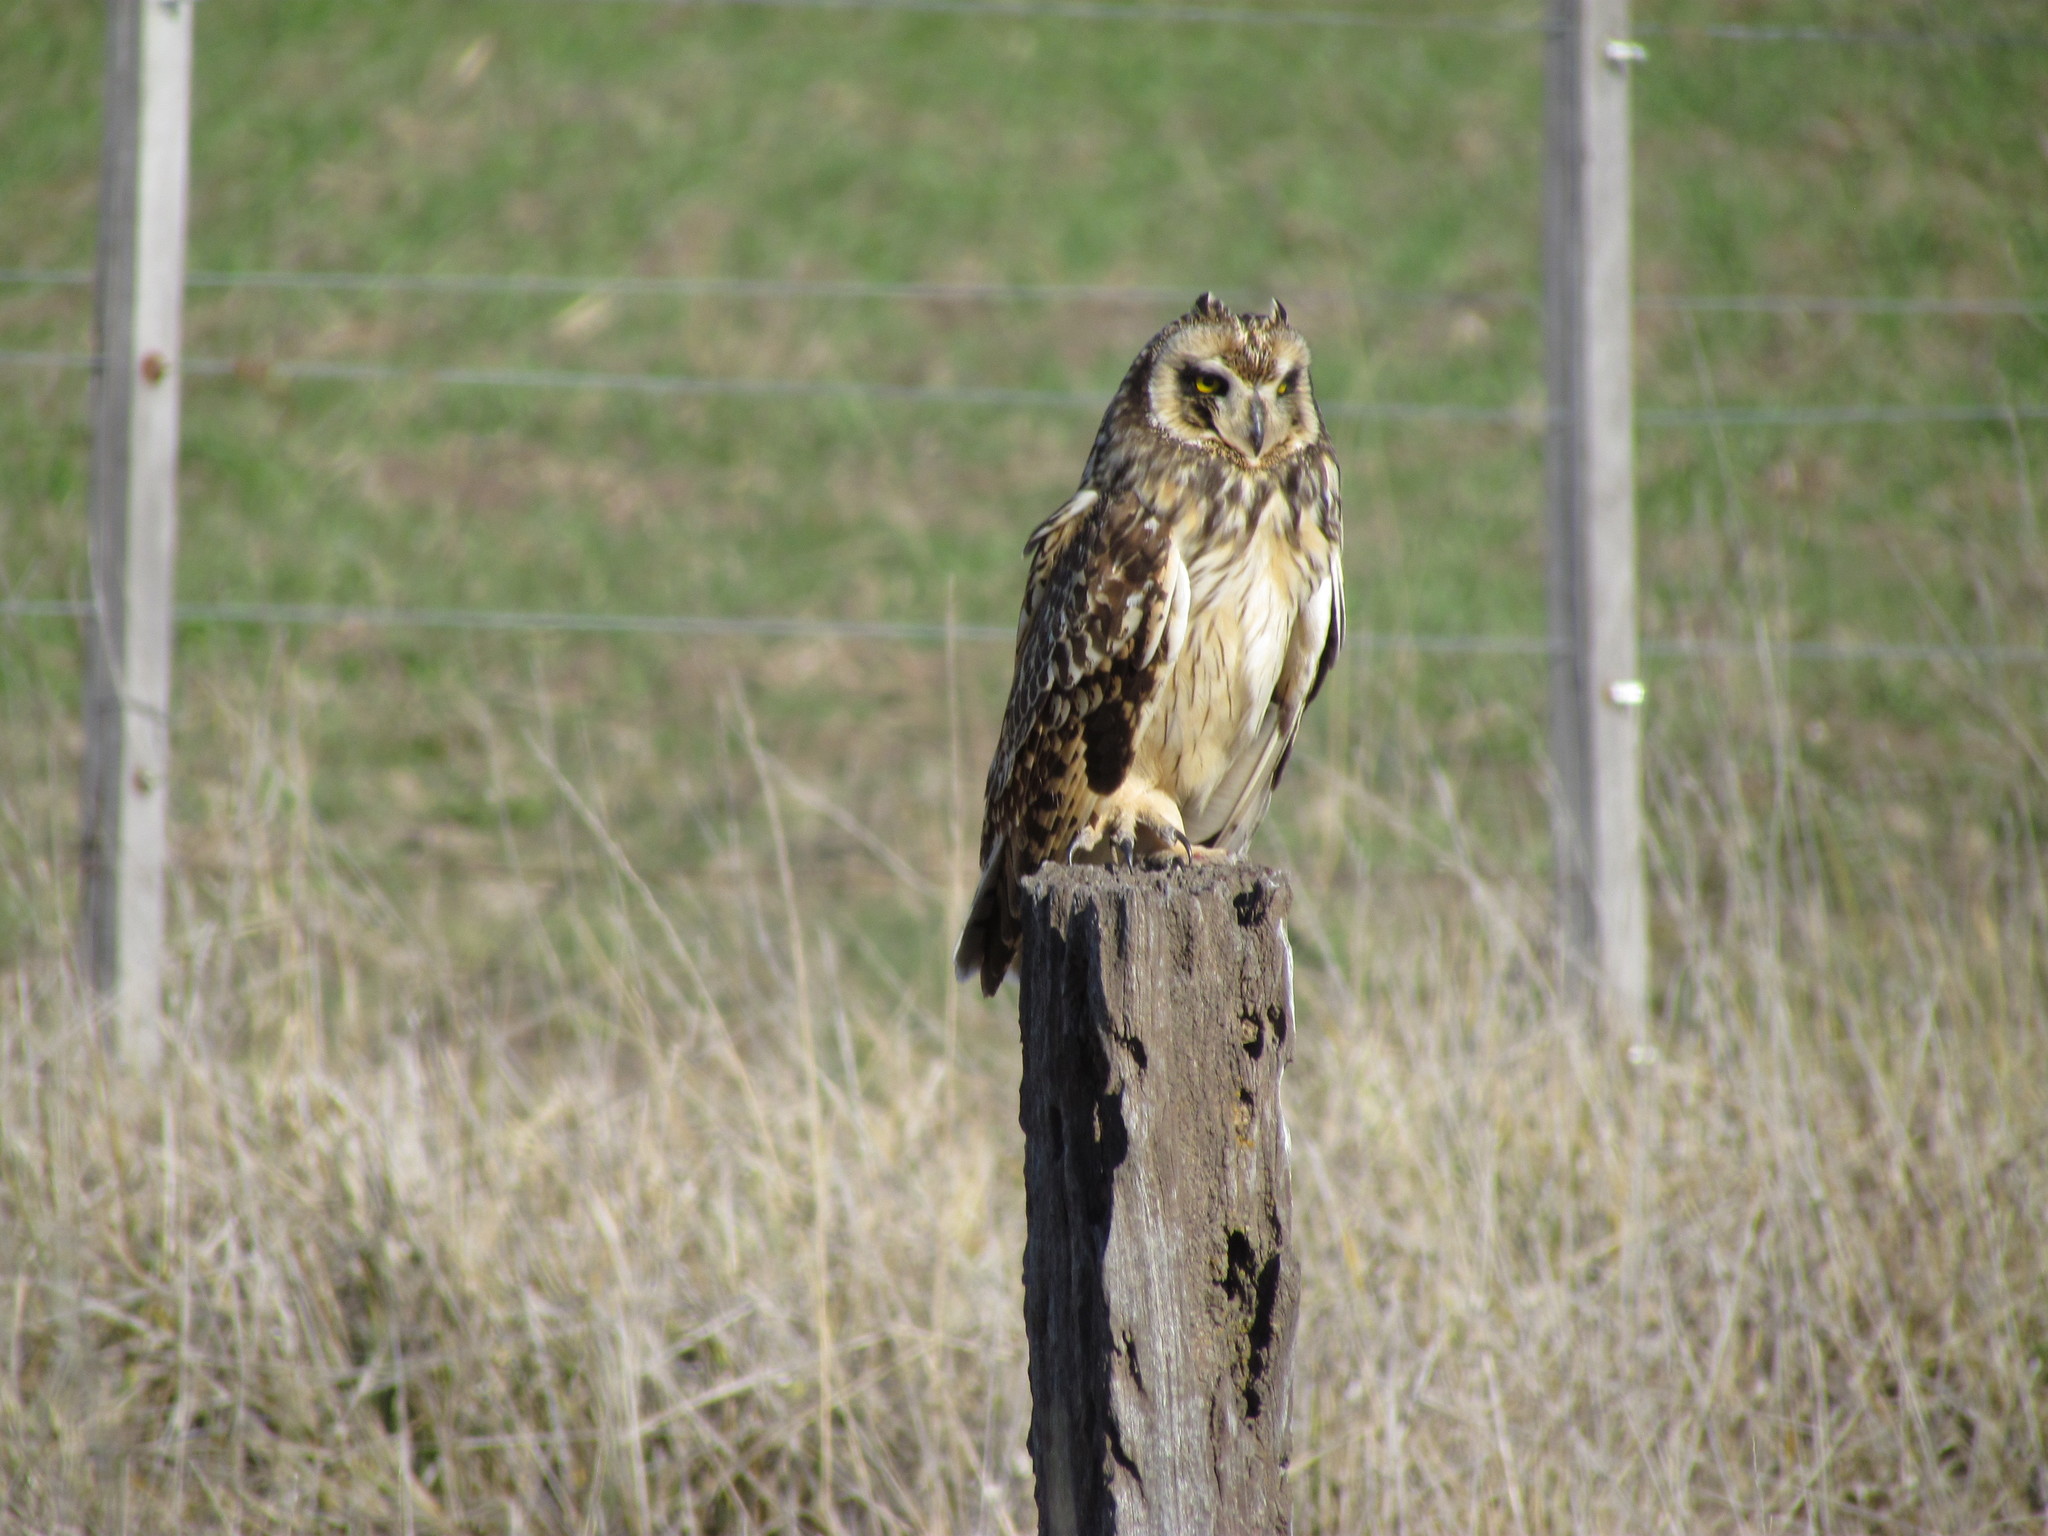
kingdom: Animalia
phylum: Chordata
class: Aves
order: Strigiformes
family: Strigidae
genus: Asio
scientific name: Asio flammeus
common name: Short-eared owl
